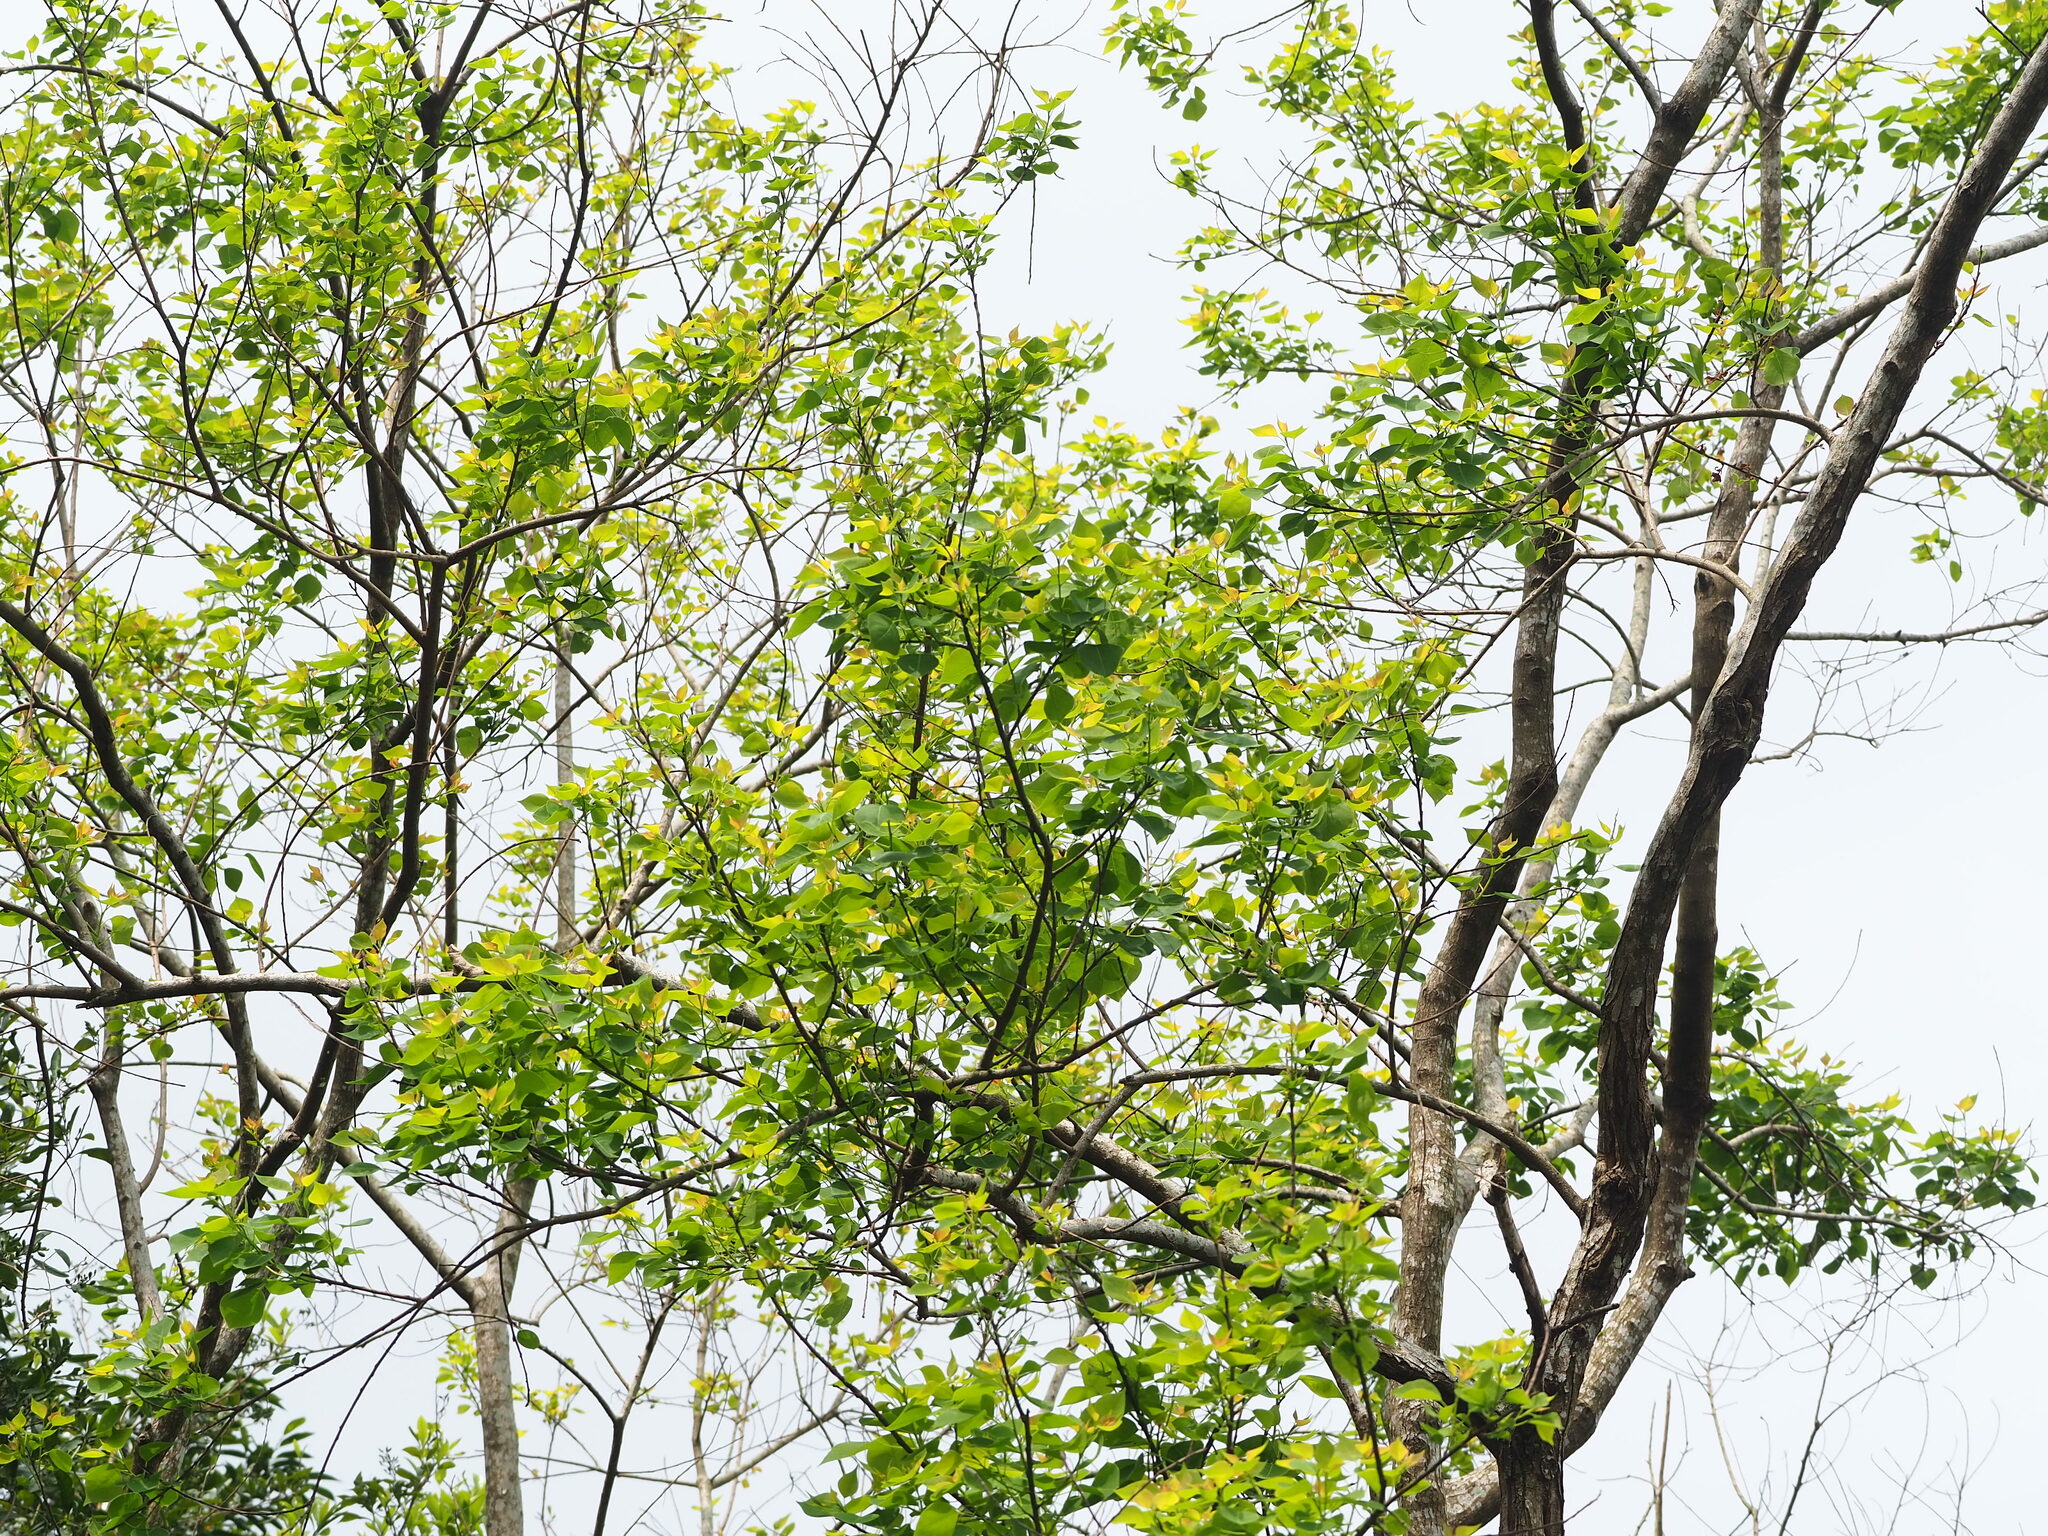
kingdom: Plantae
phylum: Tracheophyta
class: Magnoliopsida
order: Malpighiales
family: Euphorbiaceae
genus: Triadica
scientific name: Triadica sebifera
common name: Chinese tallow
